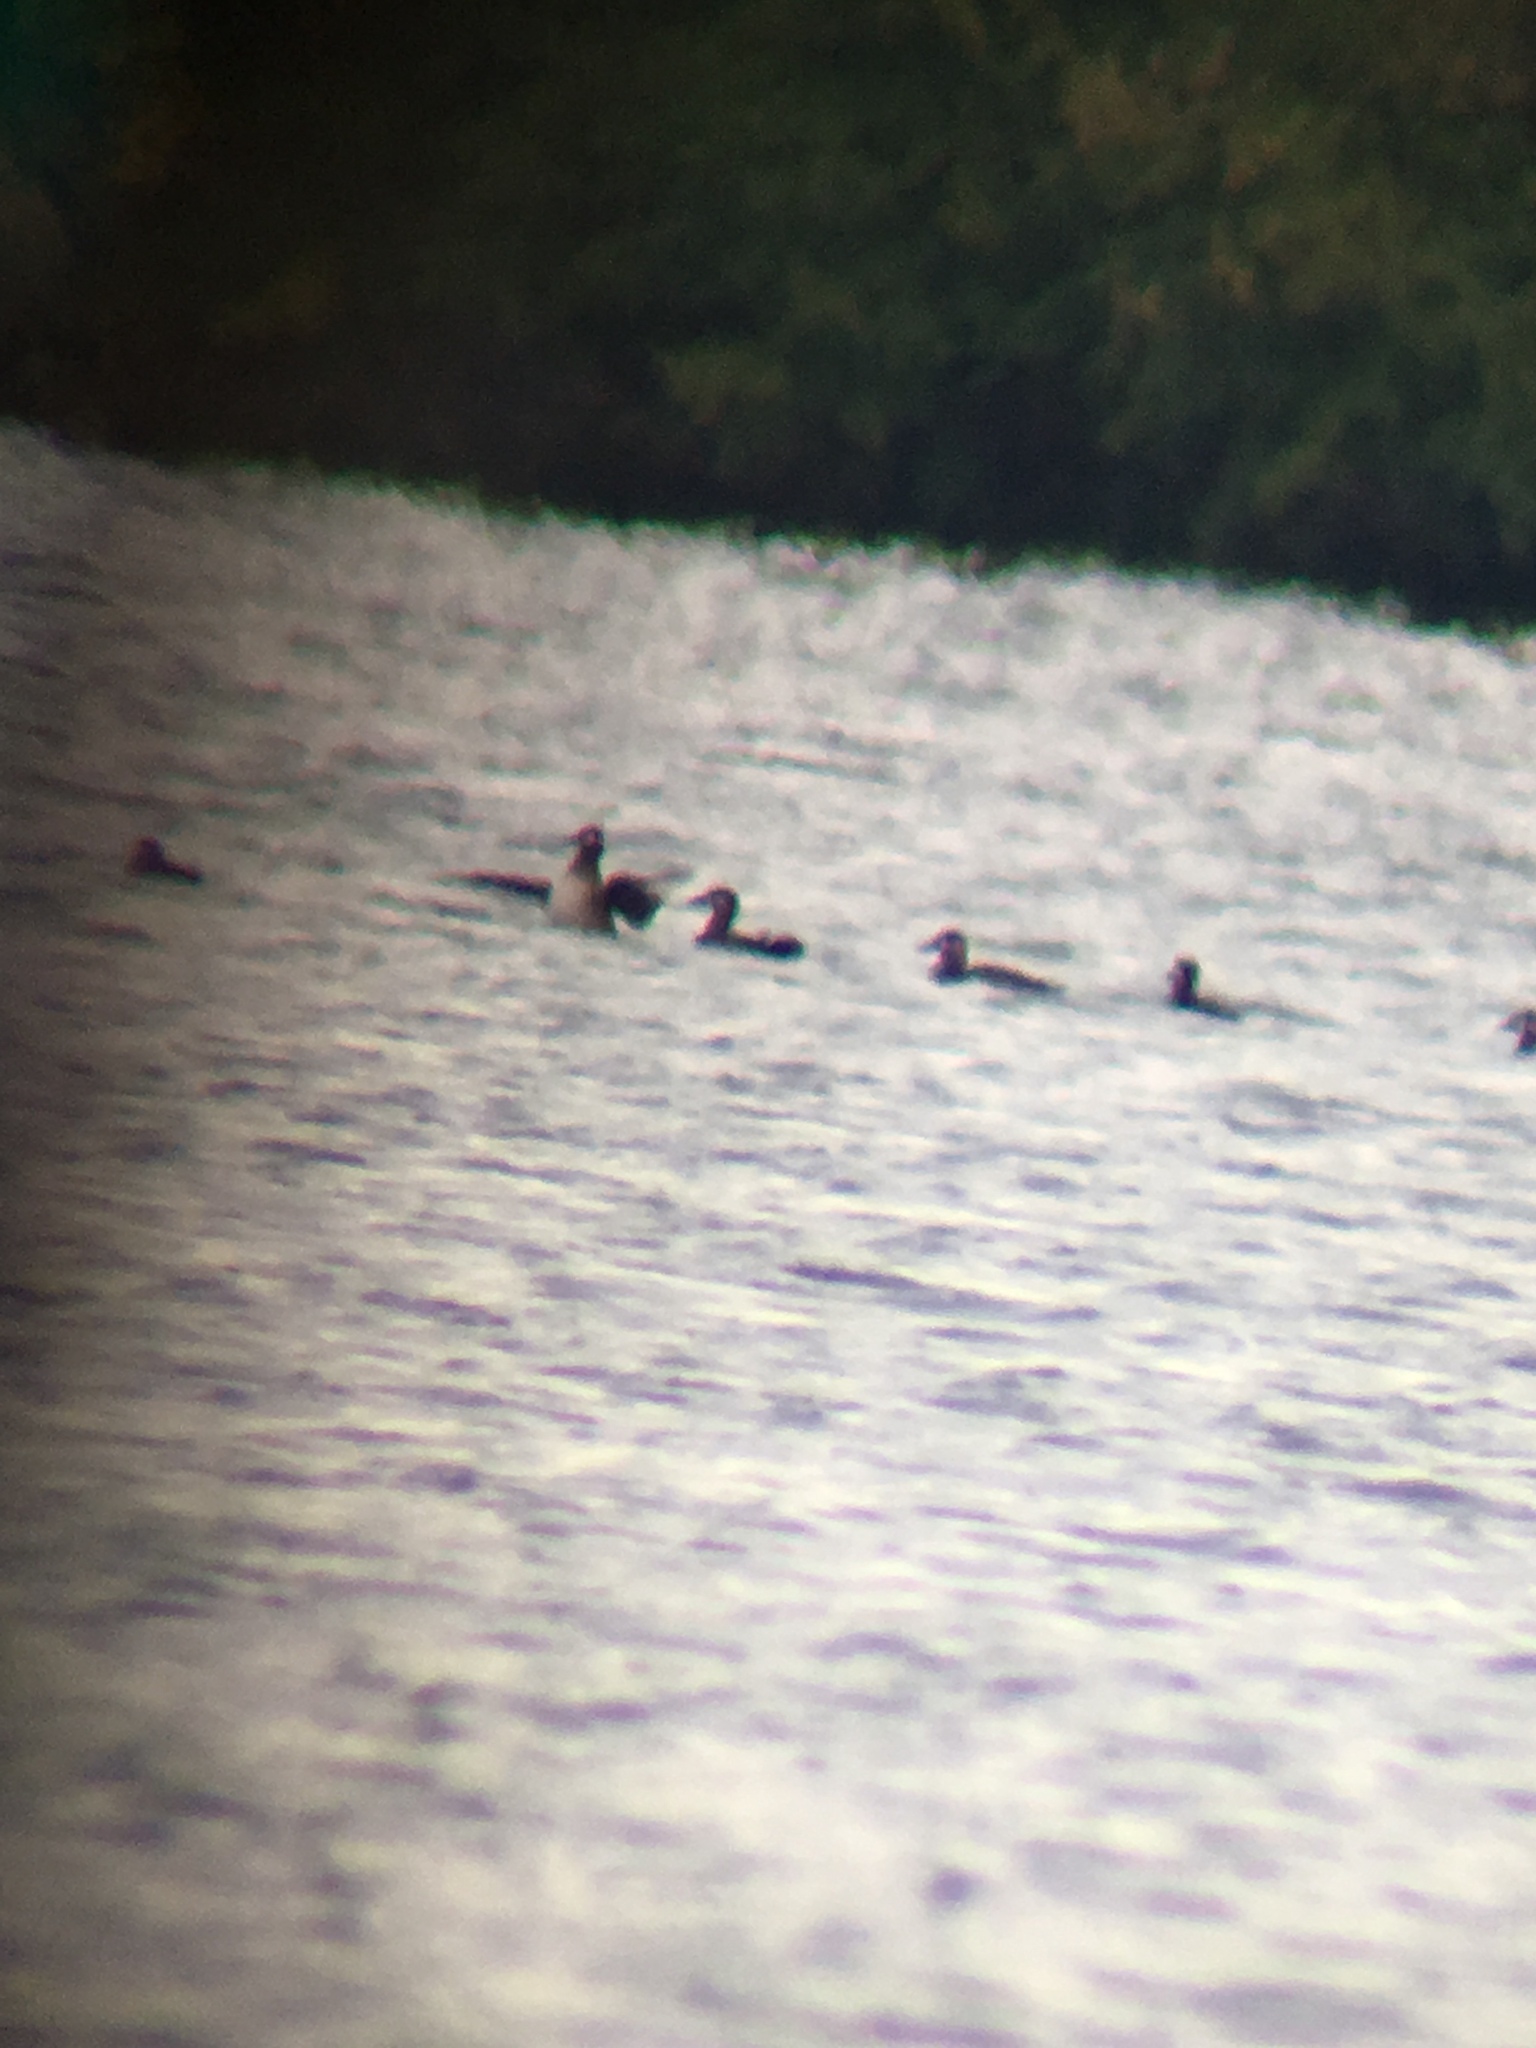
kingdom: Animalia
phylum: Chordata
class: Aves
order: Anseriformes
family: Anatidae
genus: Melanitta
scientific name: Melanitta perspicillata
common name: Surf scoter
